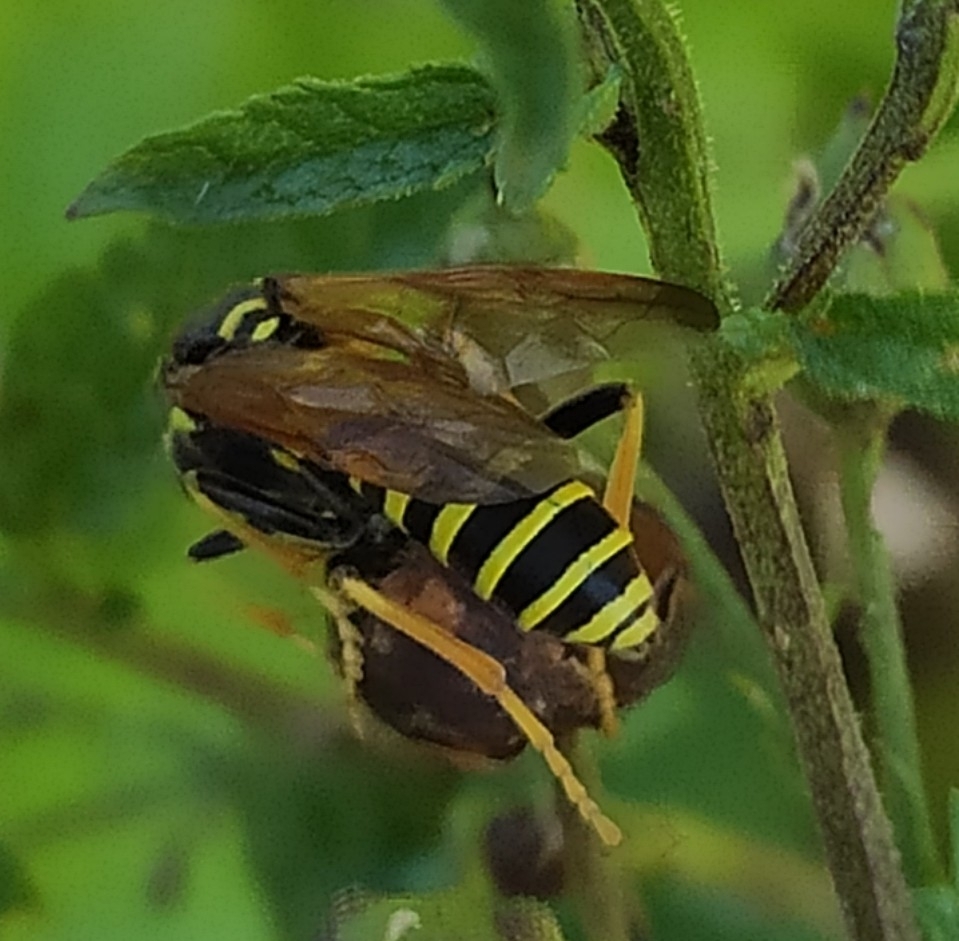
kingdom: Animalia
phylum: Arthropoda
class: Insecta
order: Hymenoptera
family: Tenthredinidae
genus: Tenthredo
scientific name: Tenthredo scrophulariae
